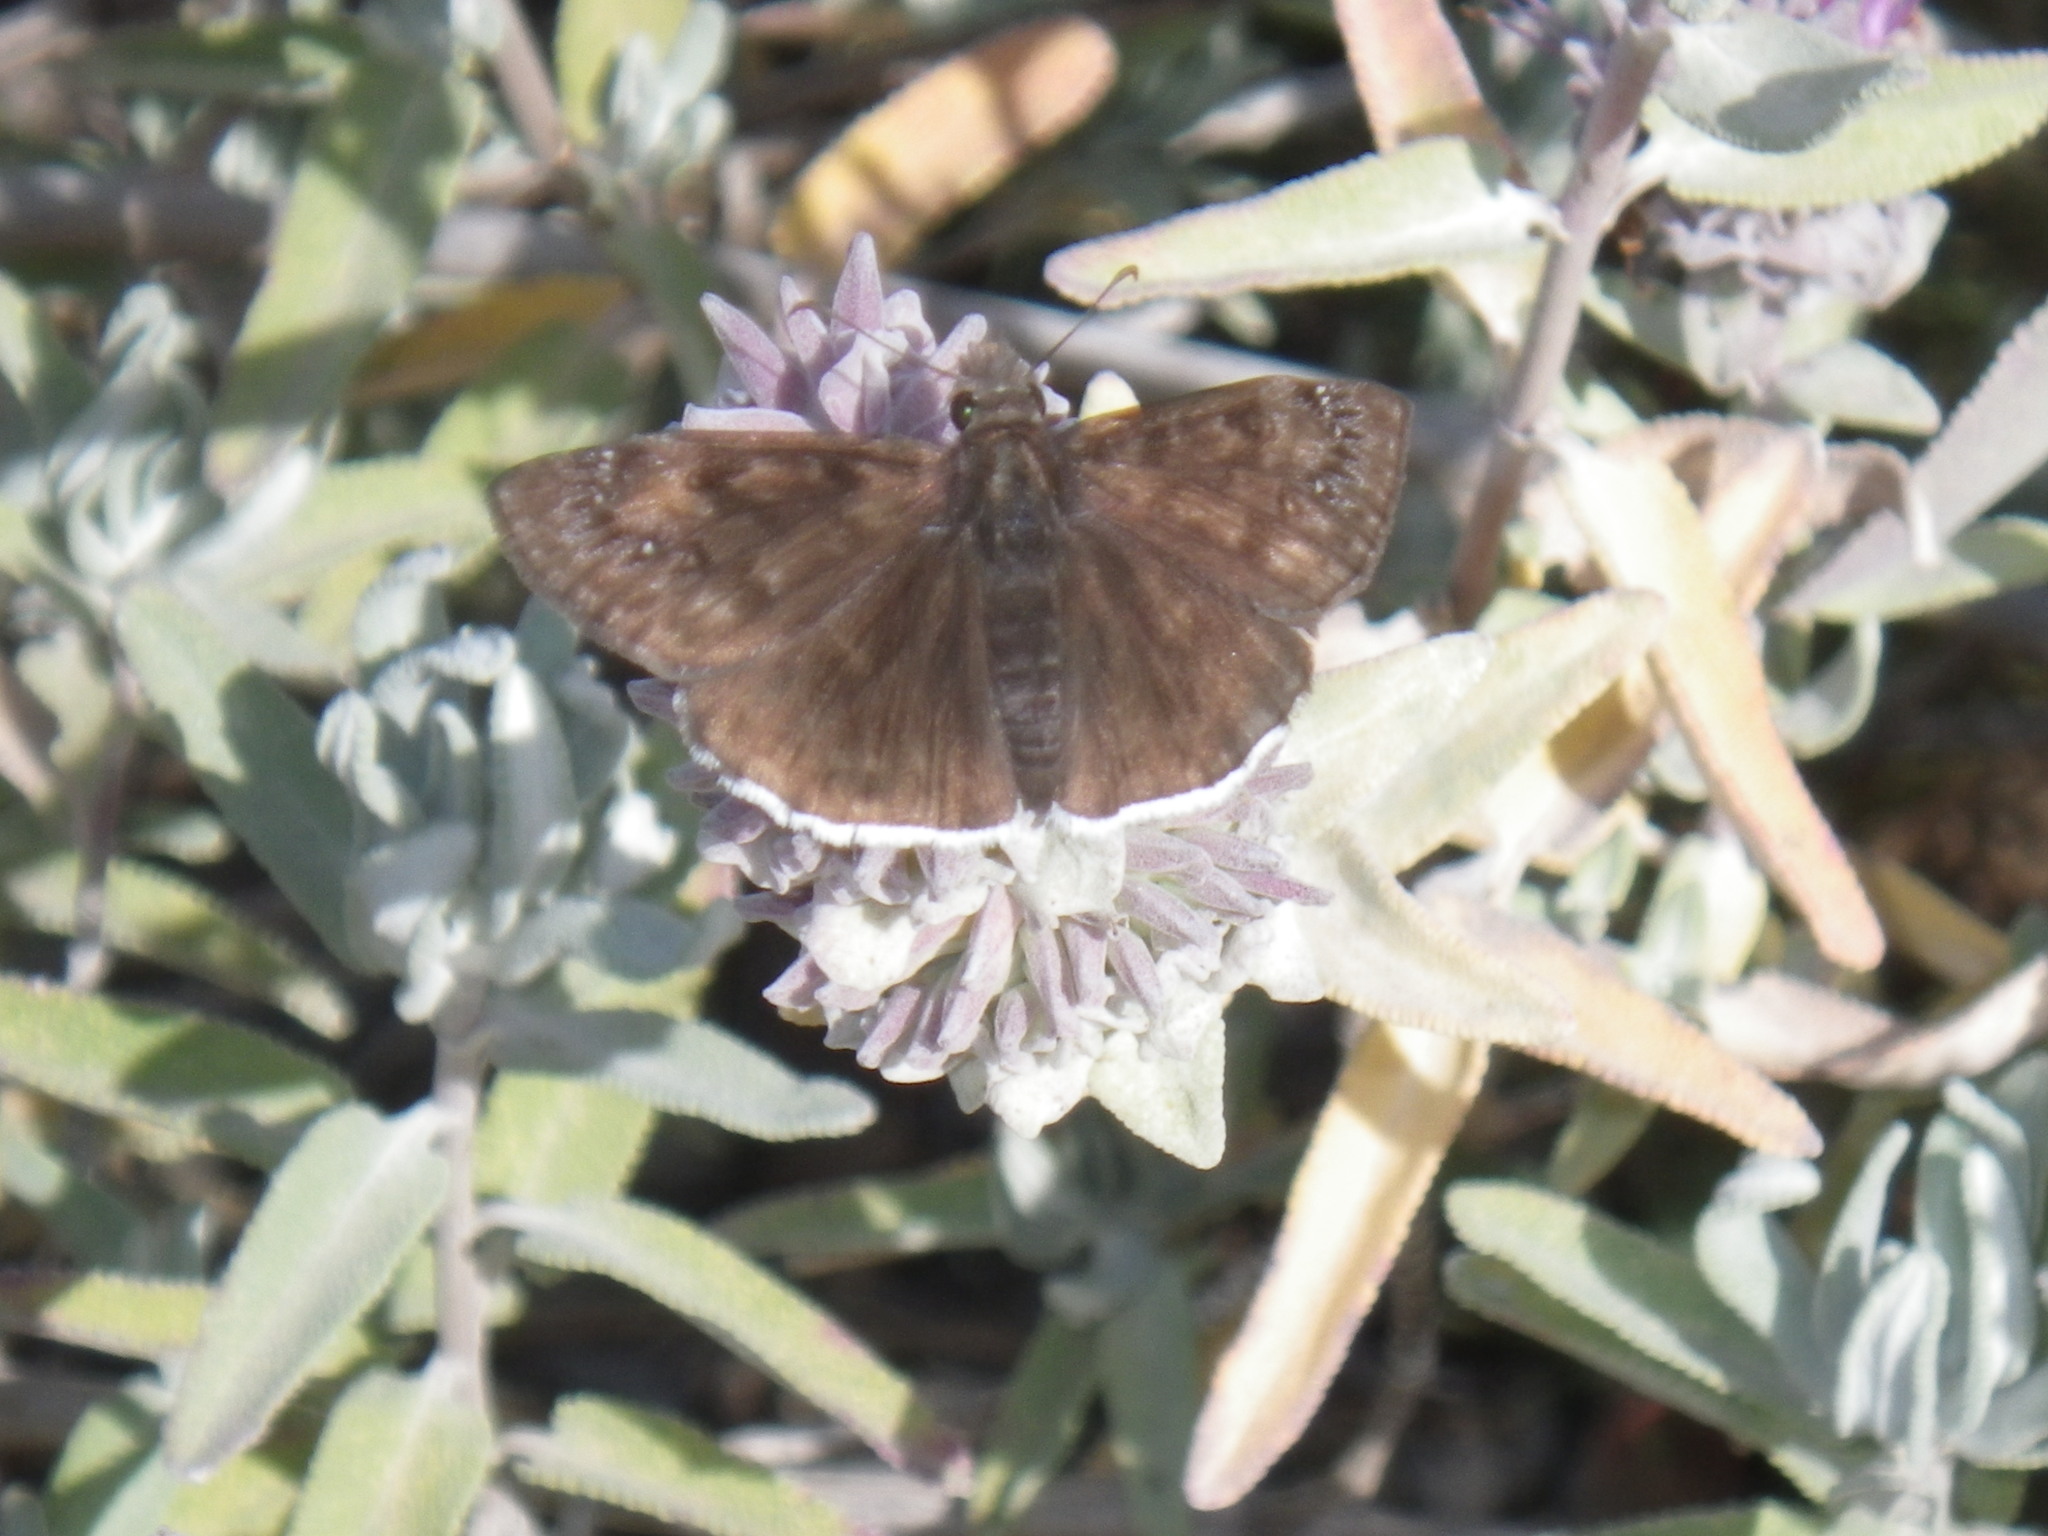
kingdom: Animalia
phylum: Arthropoda
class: Insecta
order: Lepidoptera
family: Hesperiidae
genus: Erynnis
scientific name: Erynnis tristis
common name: Mournful duskywing
